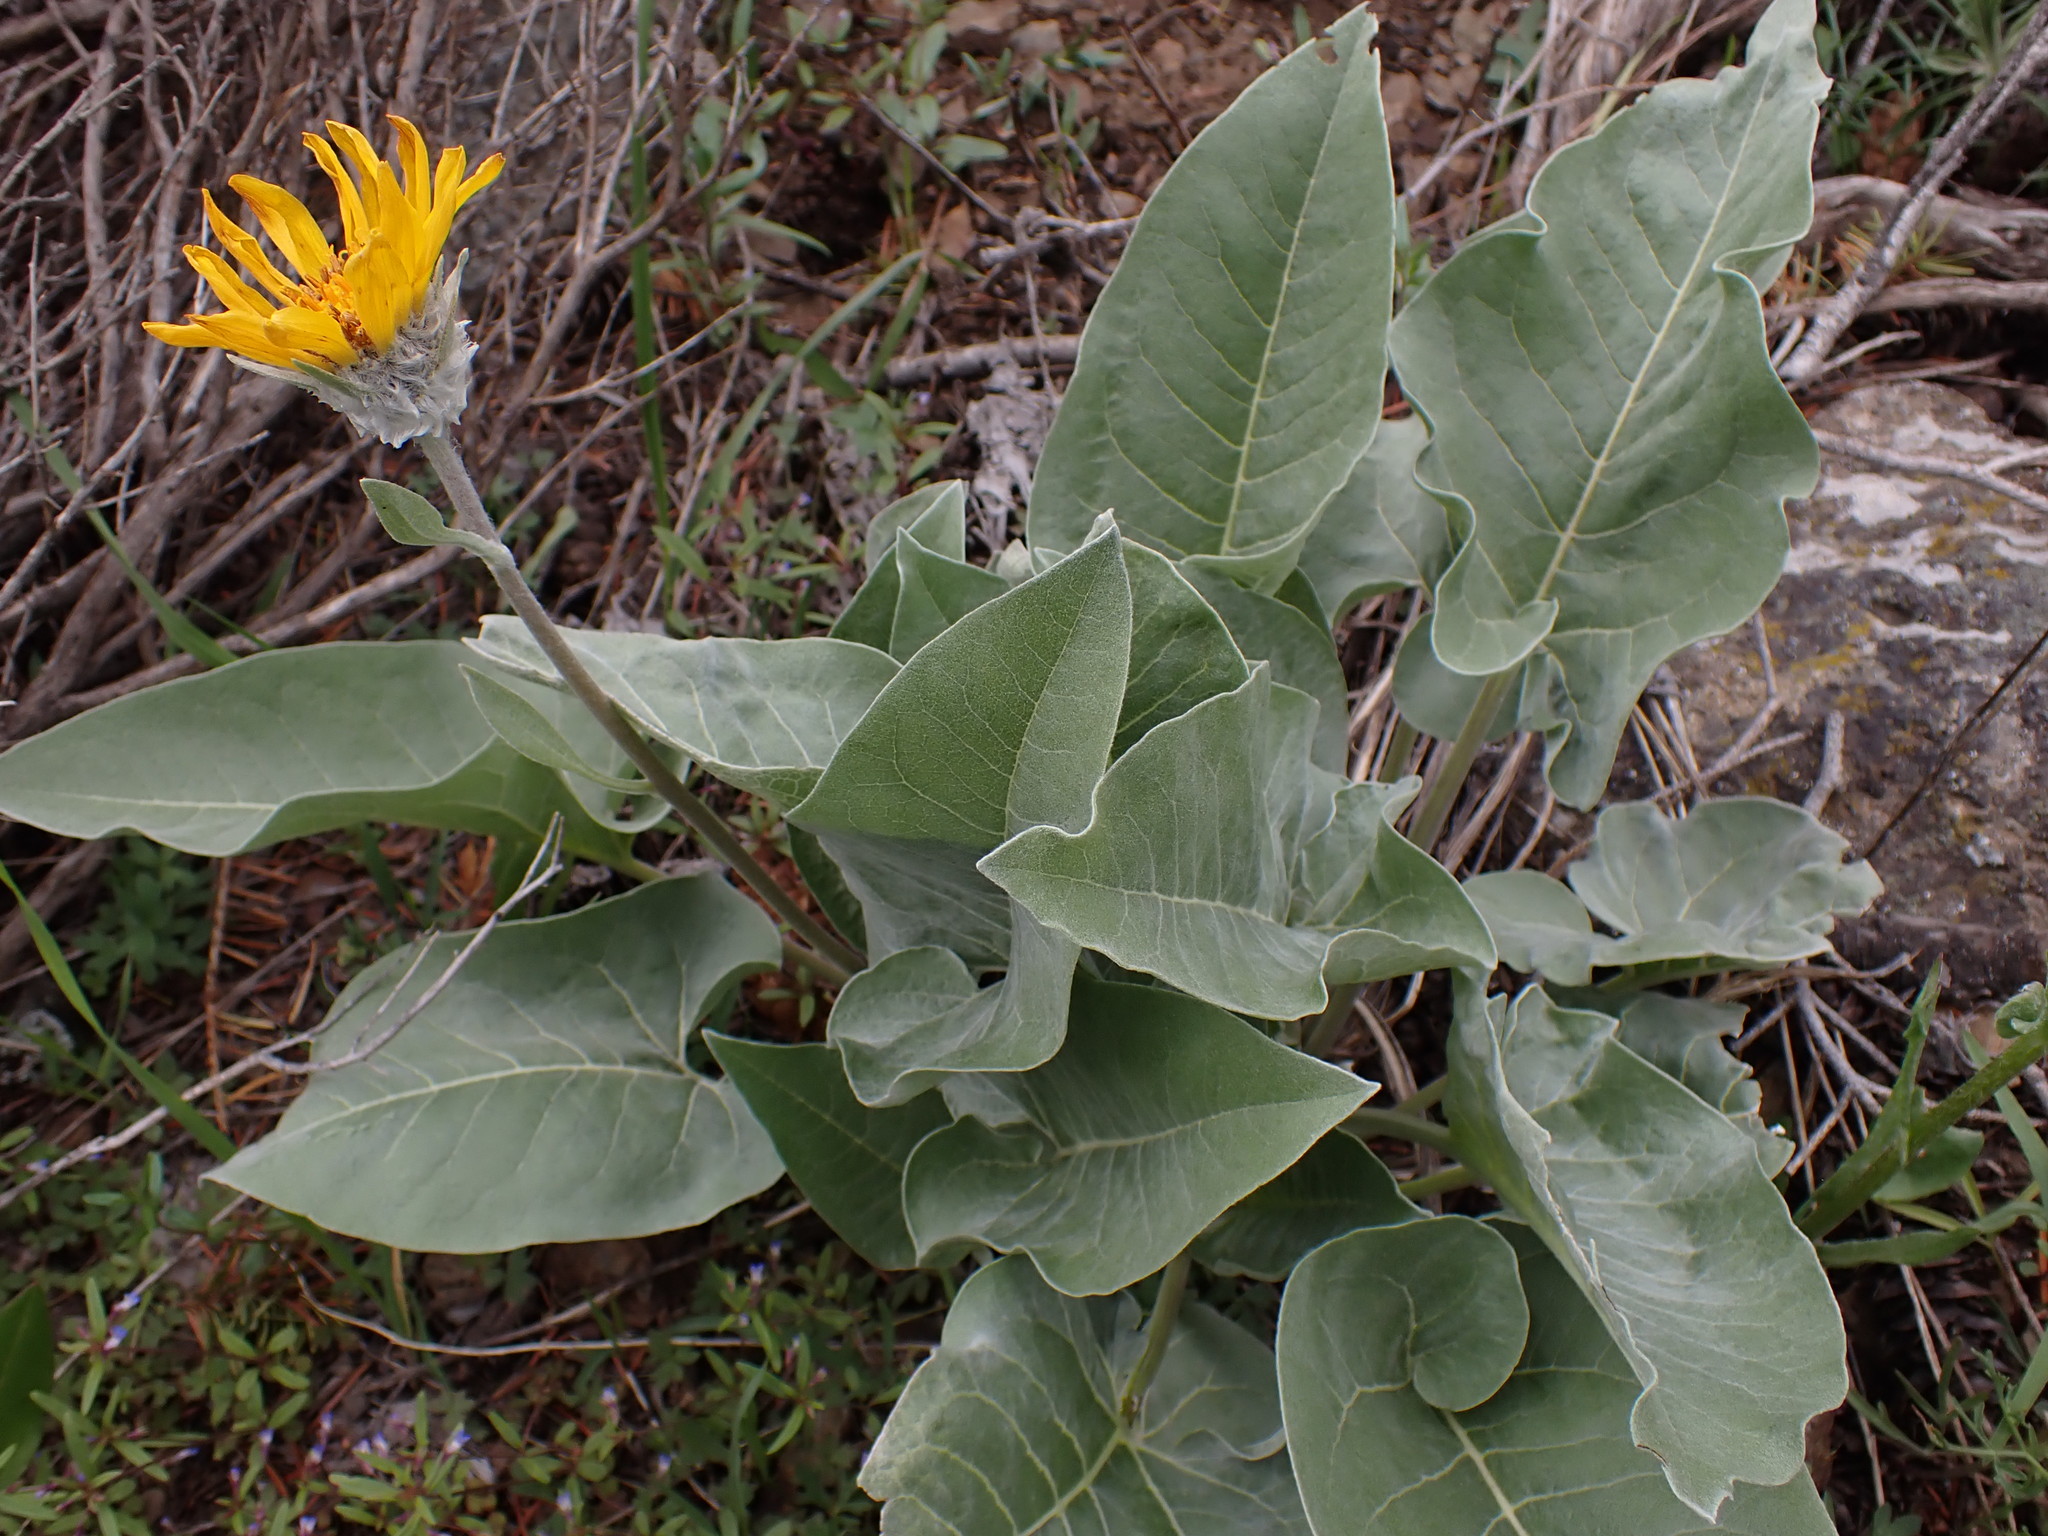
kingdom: Plantae
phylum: Tracheophyta
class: Magnoliopsida
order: Asterales
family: Asteraceae
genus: Wyethia
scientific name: Wyethia sagittata
